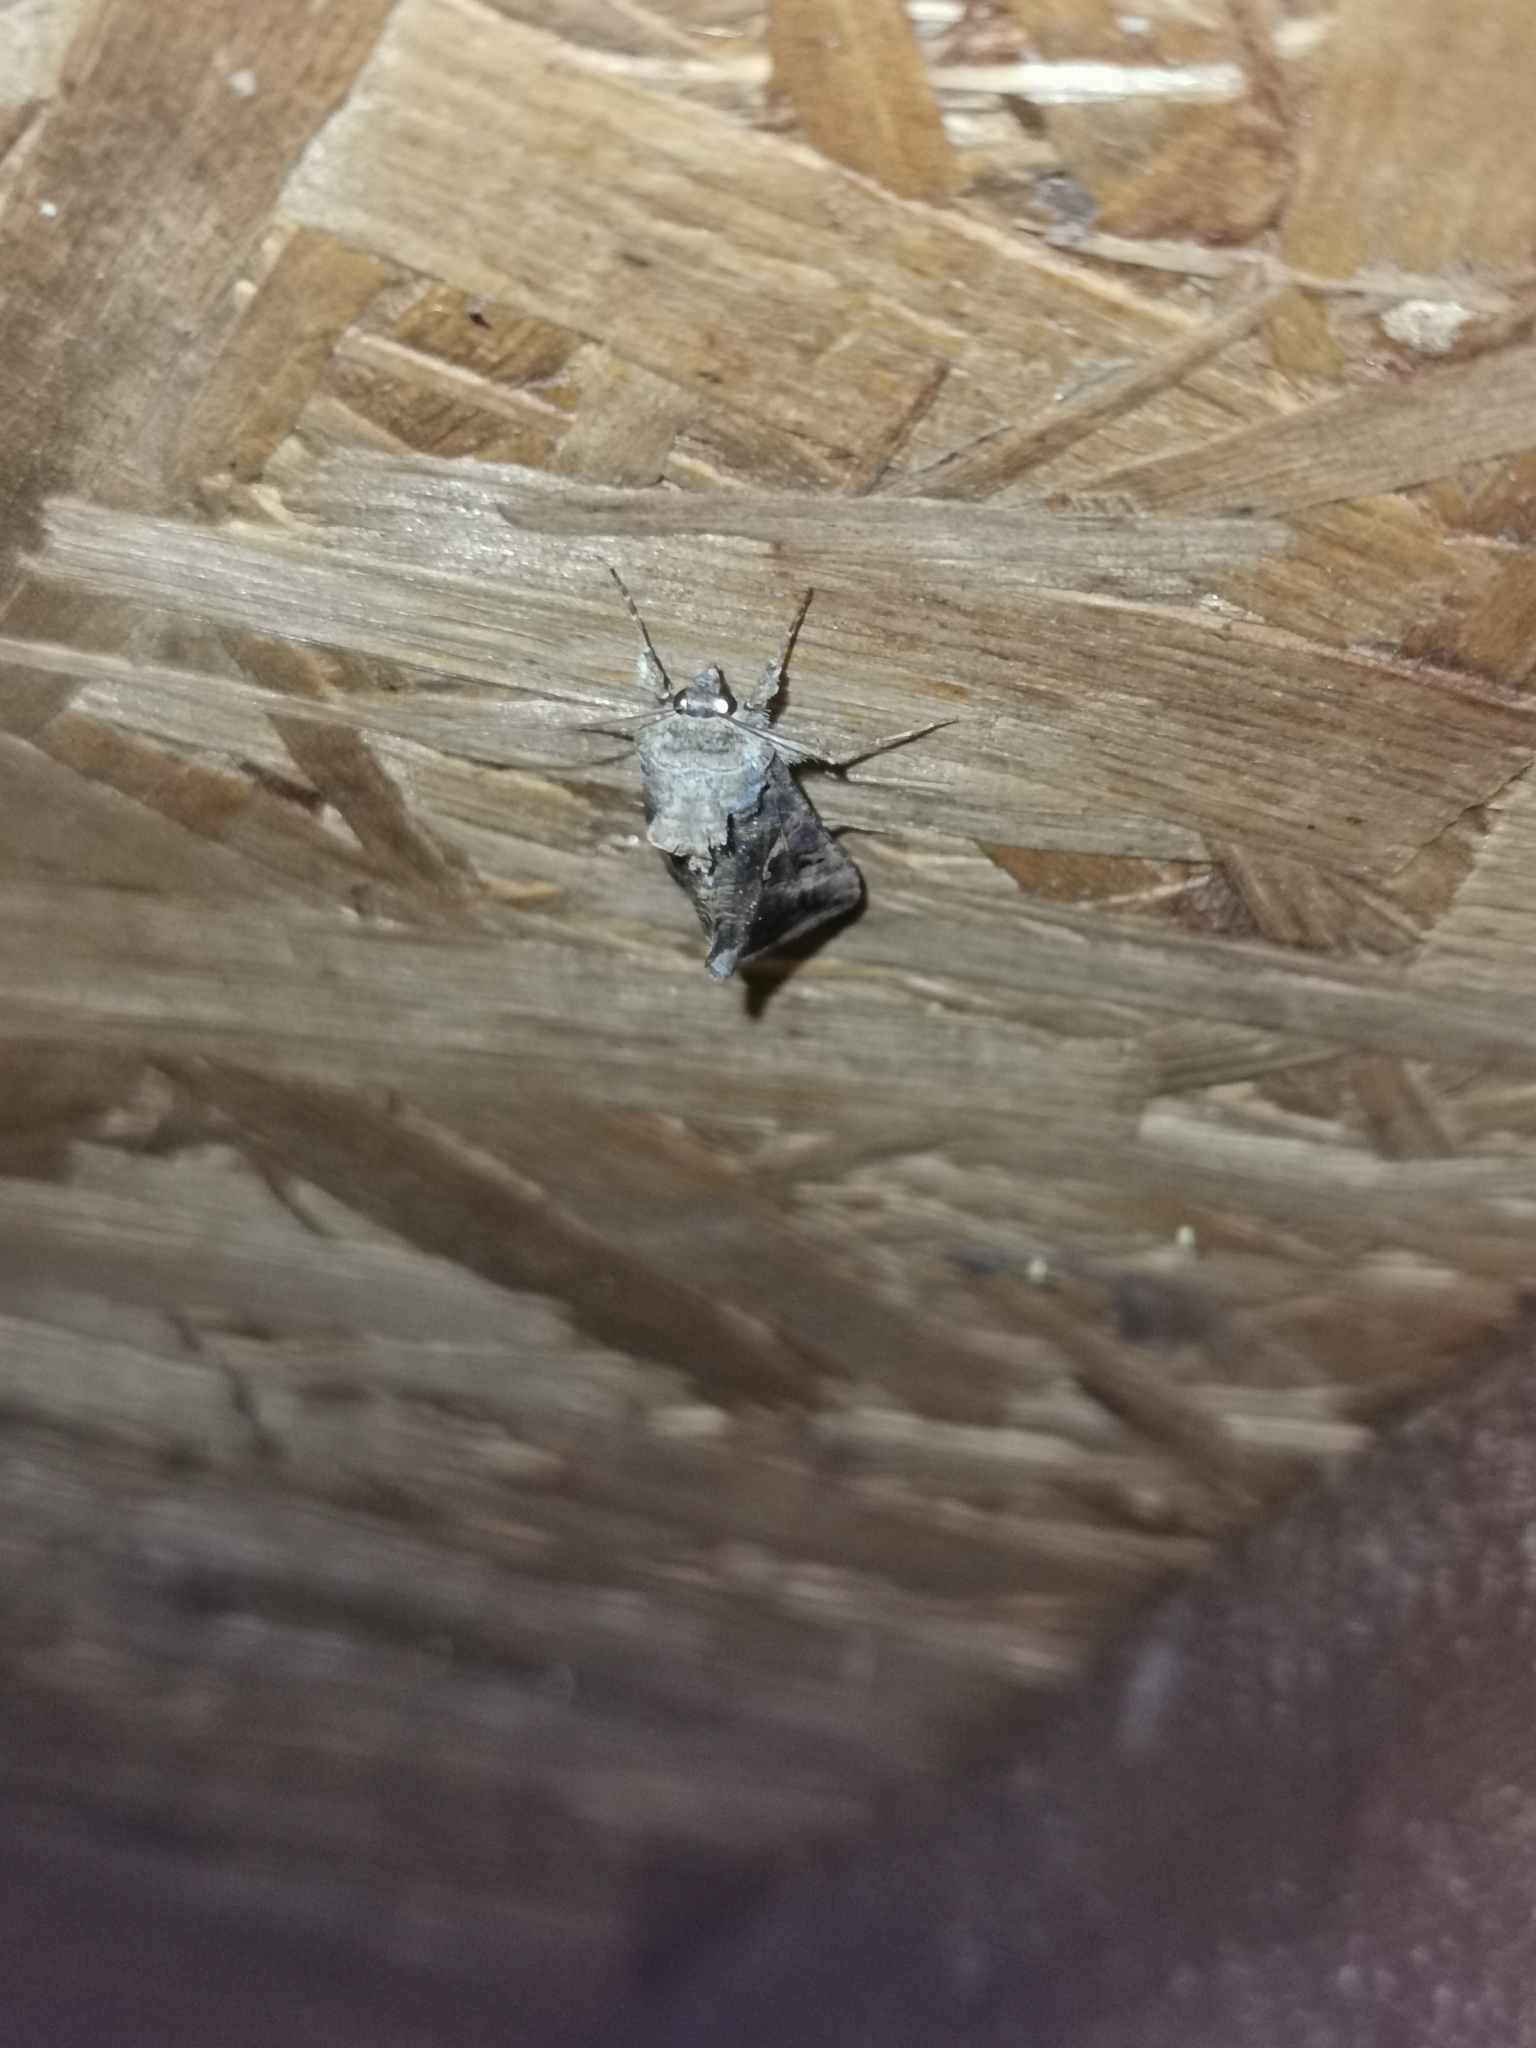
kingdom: Animalia
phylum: Arthropoda
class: Insecta
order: Lepidoptera
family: Noctuidae
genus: Autographa
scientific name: Autographa gamma
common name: Silver y
